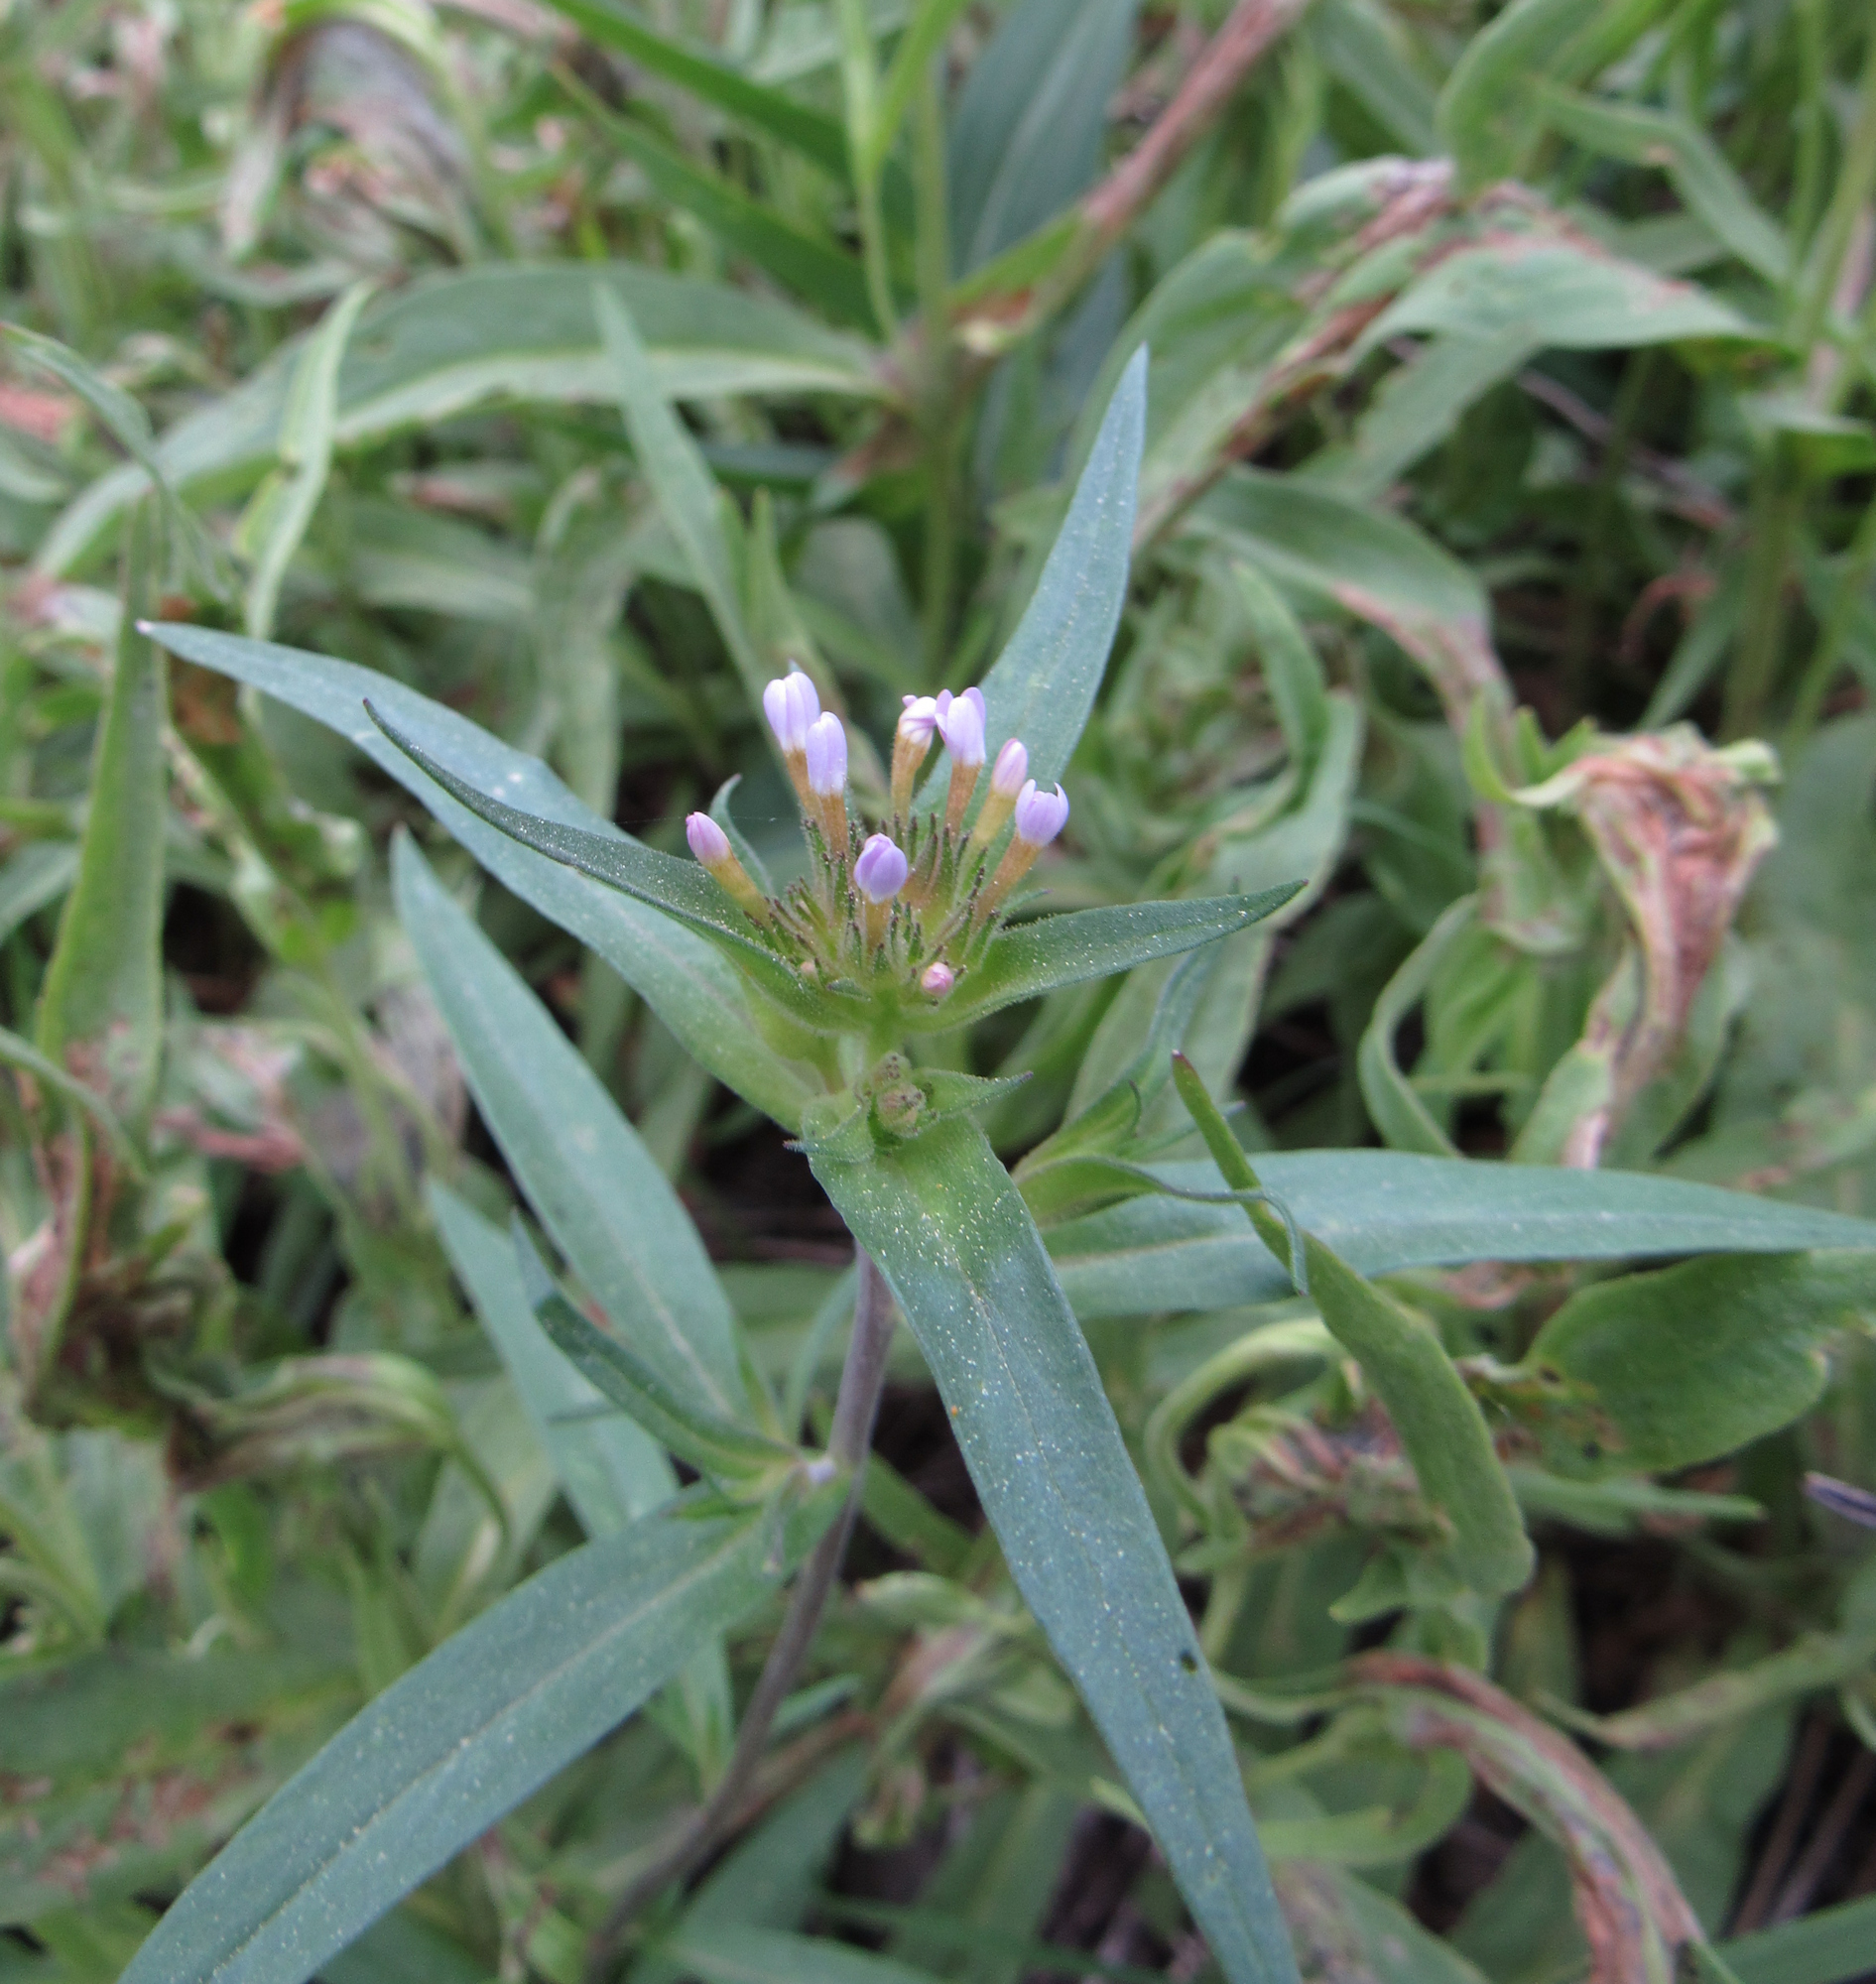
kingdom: Plantae
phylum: Tracheophyta
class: Magnoliopsida
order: Ericales
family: Polemoniaceae
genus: Collomia
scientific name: Collomia linearis
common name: Tiny trumpet
